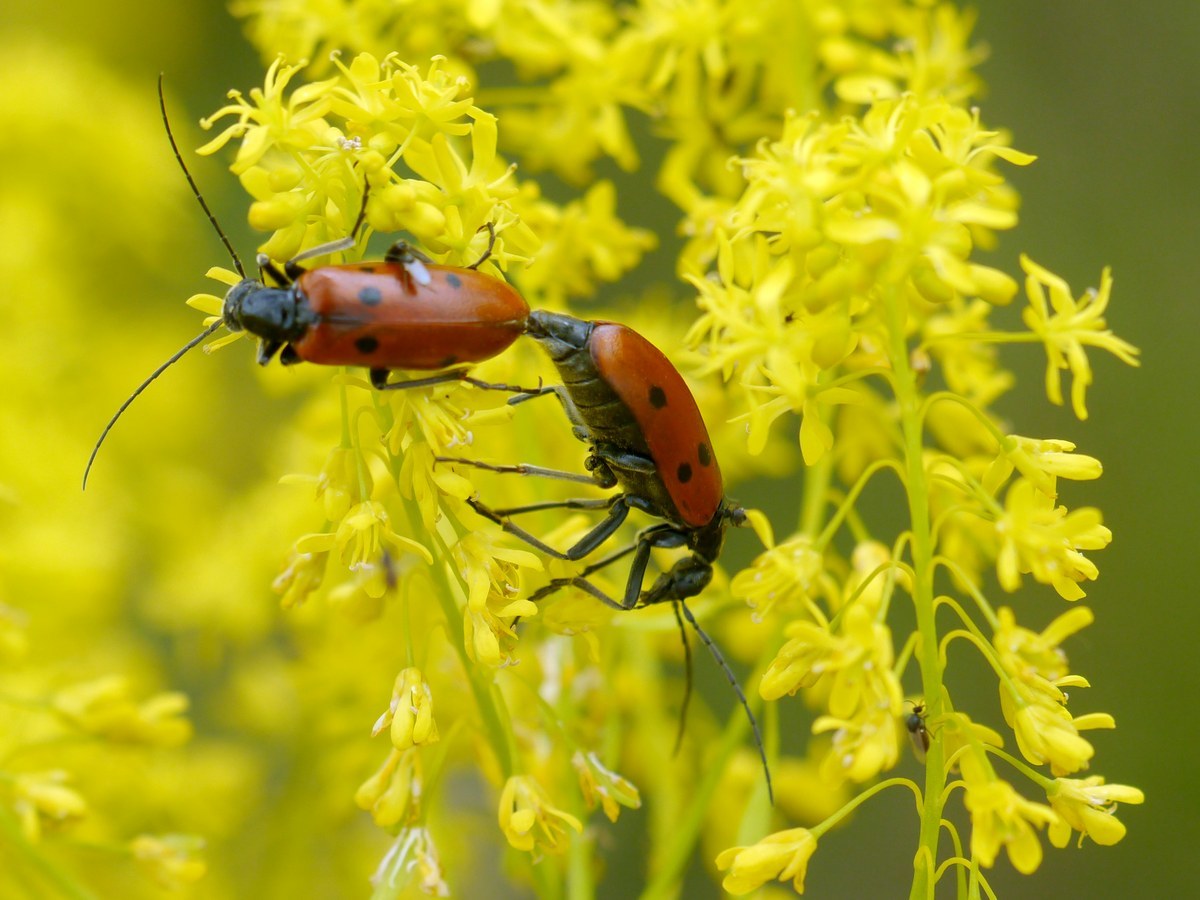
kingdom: Animalia
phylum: Arthropoda
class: Insecta
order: Coleoptera
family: Meloidae
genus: Stenodera
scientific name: Stenodera caucasica
